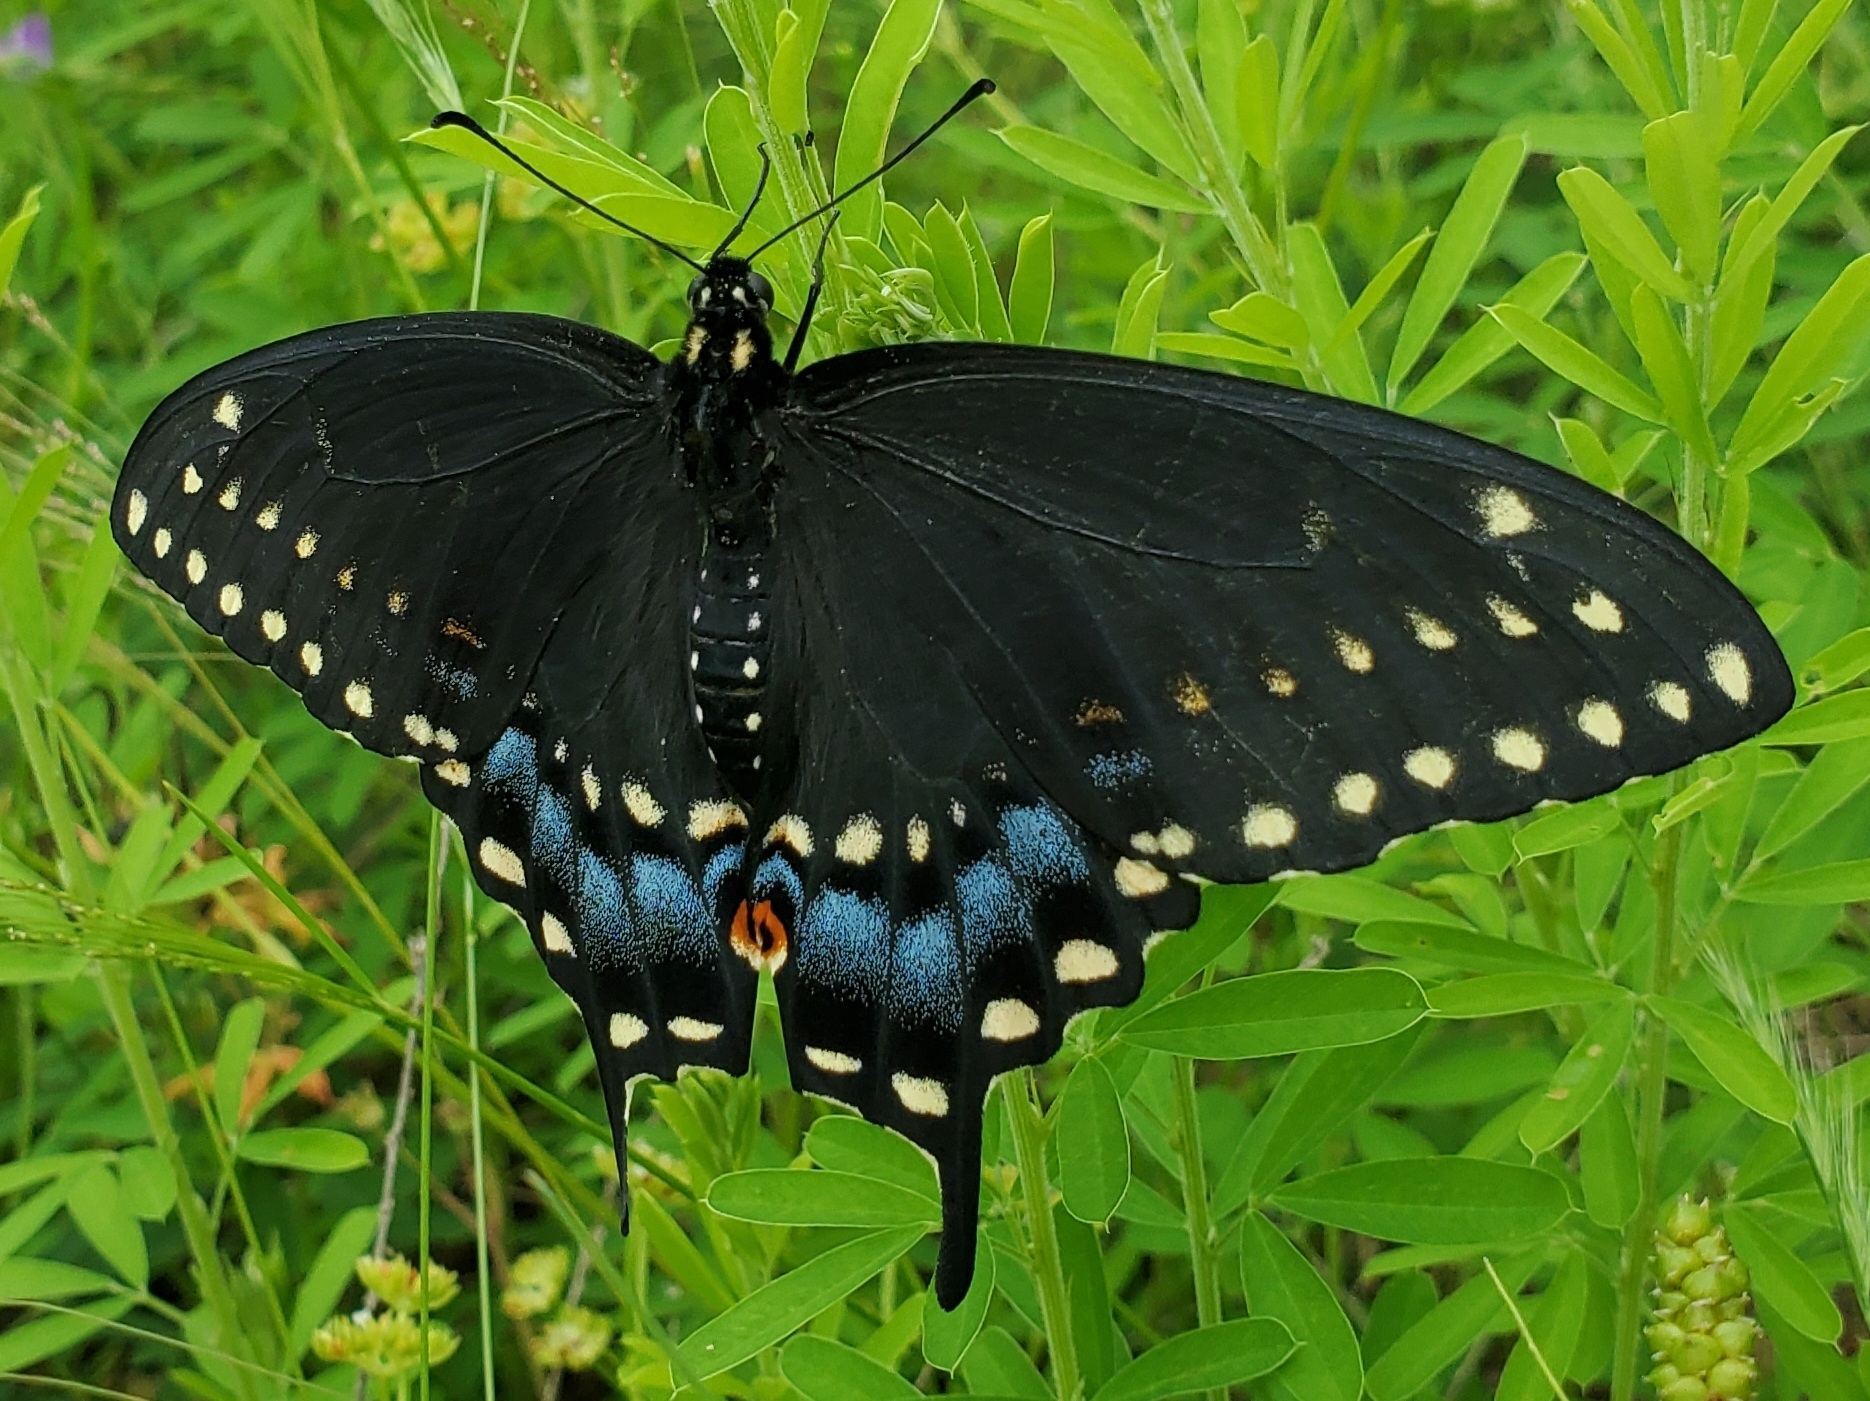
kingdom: Animalia
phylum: Arthropoda
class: Insecta
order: Lepidoptera
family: Papilionidae
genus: Papilio
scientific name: Papilio polyxenes
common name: Black swallowtail
